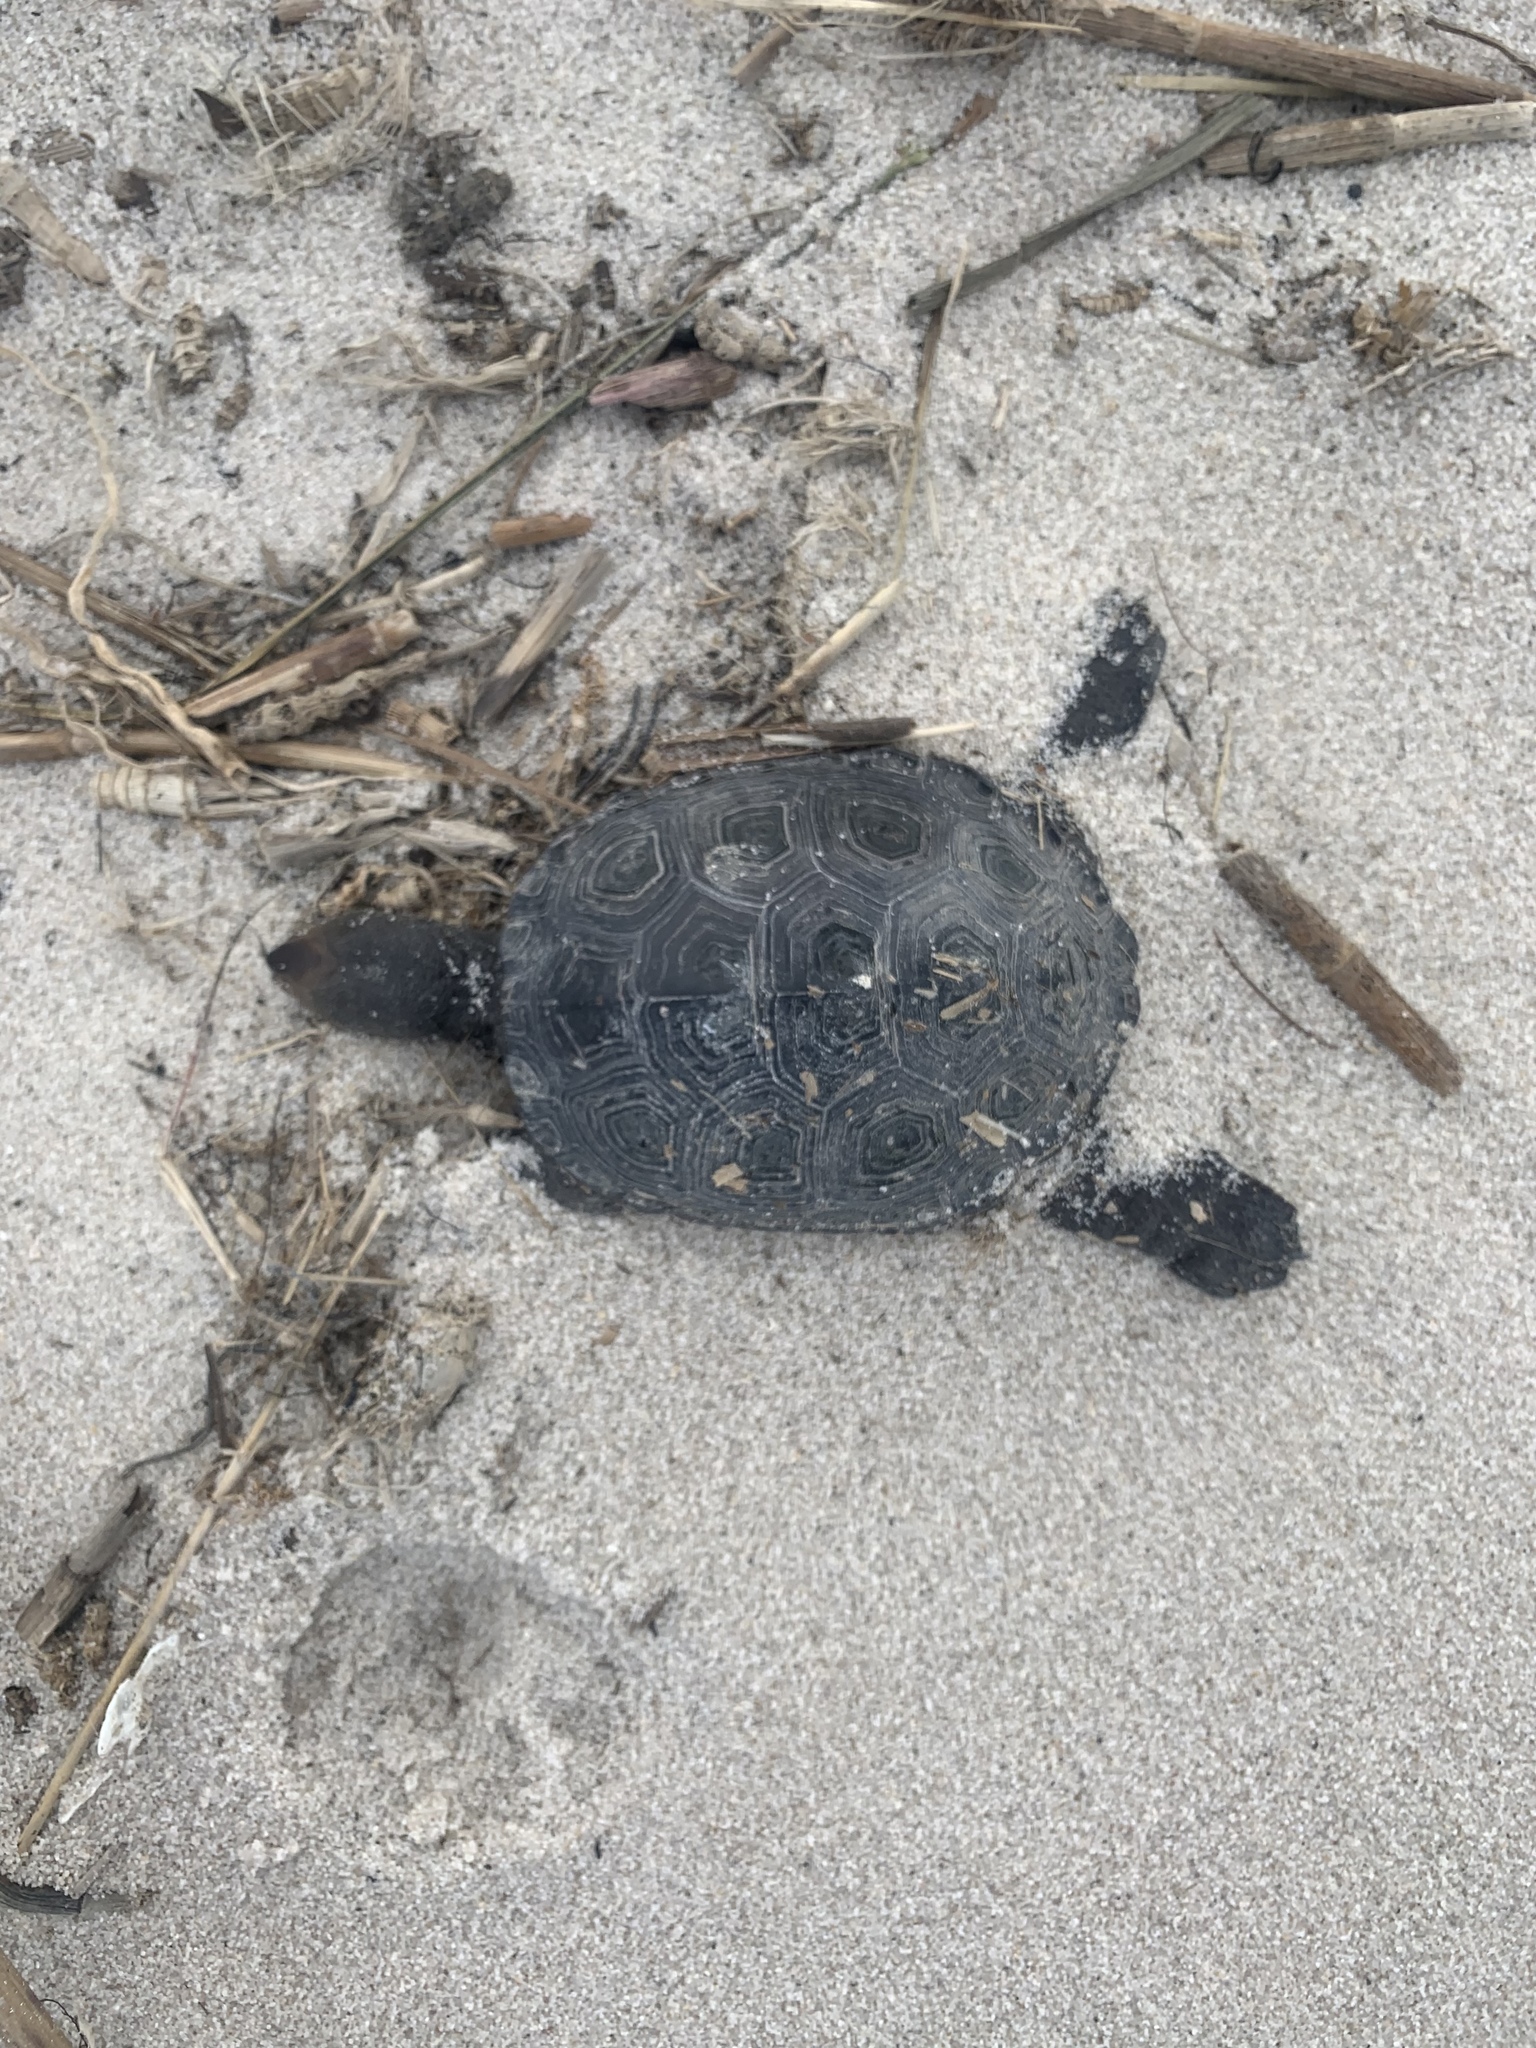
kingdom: Animalia
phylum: Chordata
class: Testudines
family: Emydidae
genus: Malaclemys
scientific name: Malaclemys terrapin
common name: Diamondback terrapin
